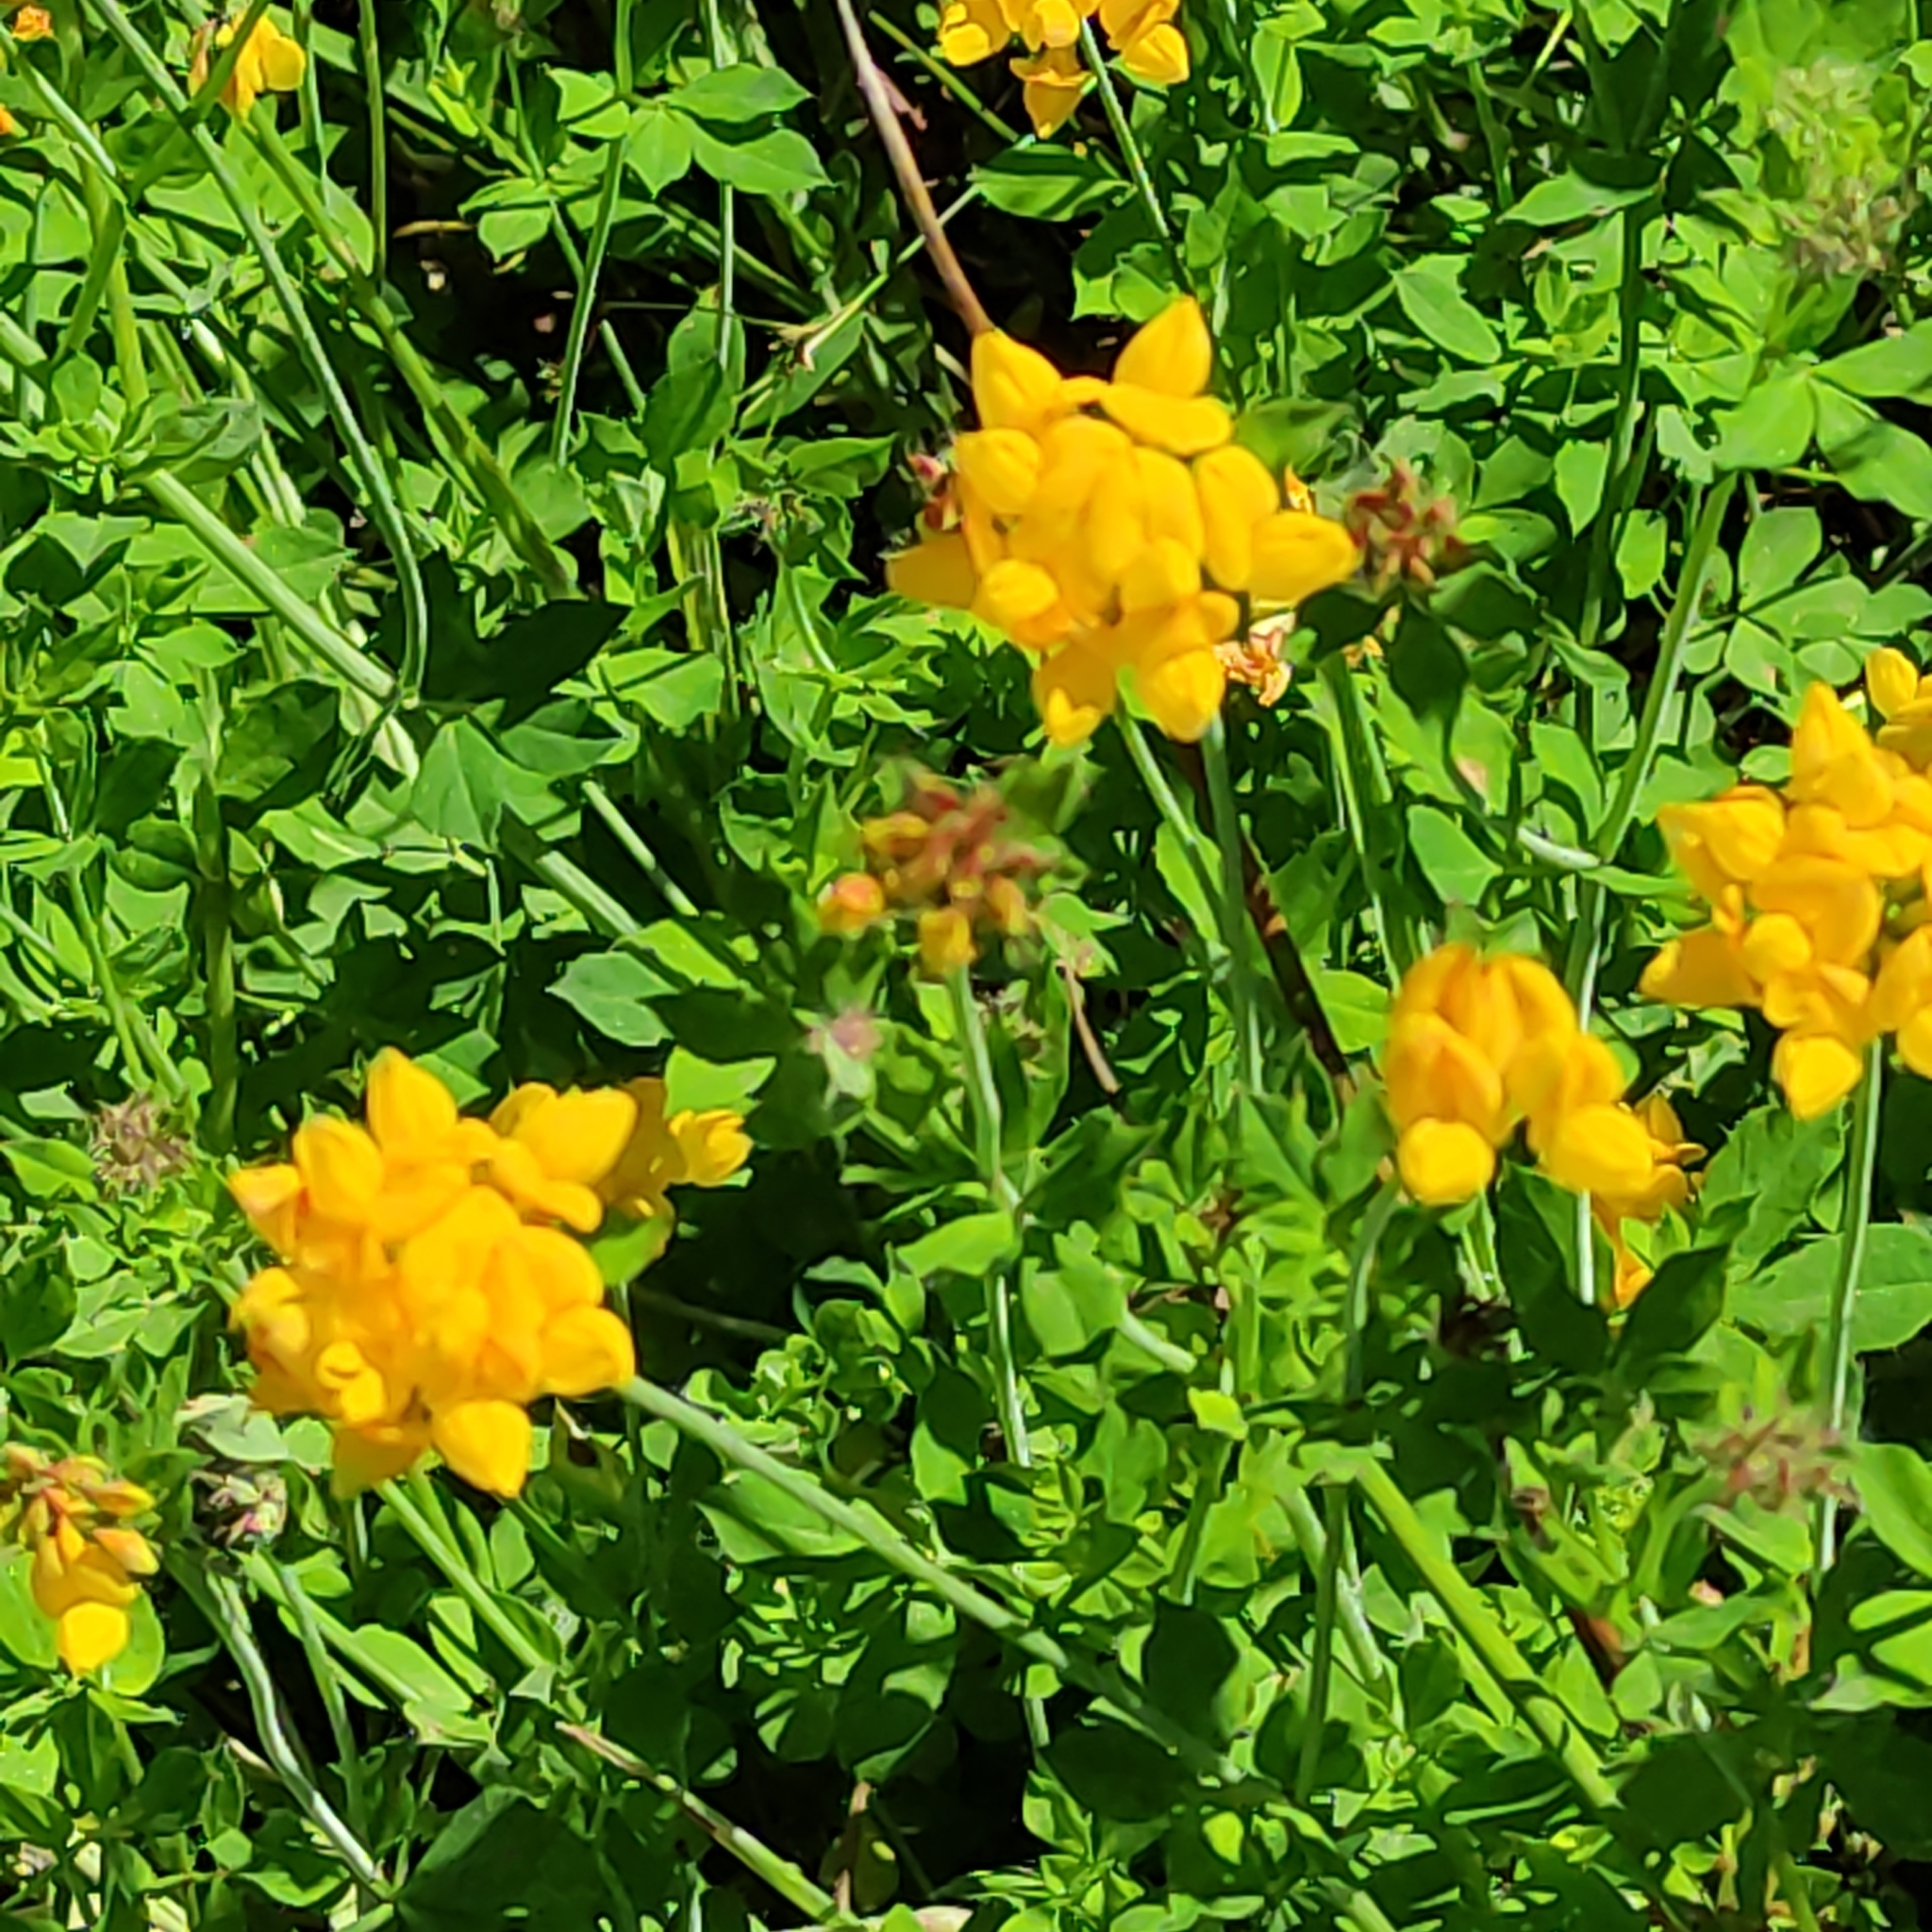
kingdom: Plantae
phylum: Tracheophyta
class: Magnoliopsida
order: Fabales
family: Fabaceae
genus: Lotus
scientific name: Lotus pedunculatus
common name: Greater birdsfoot-trefoil
